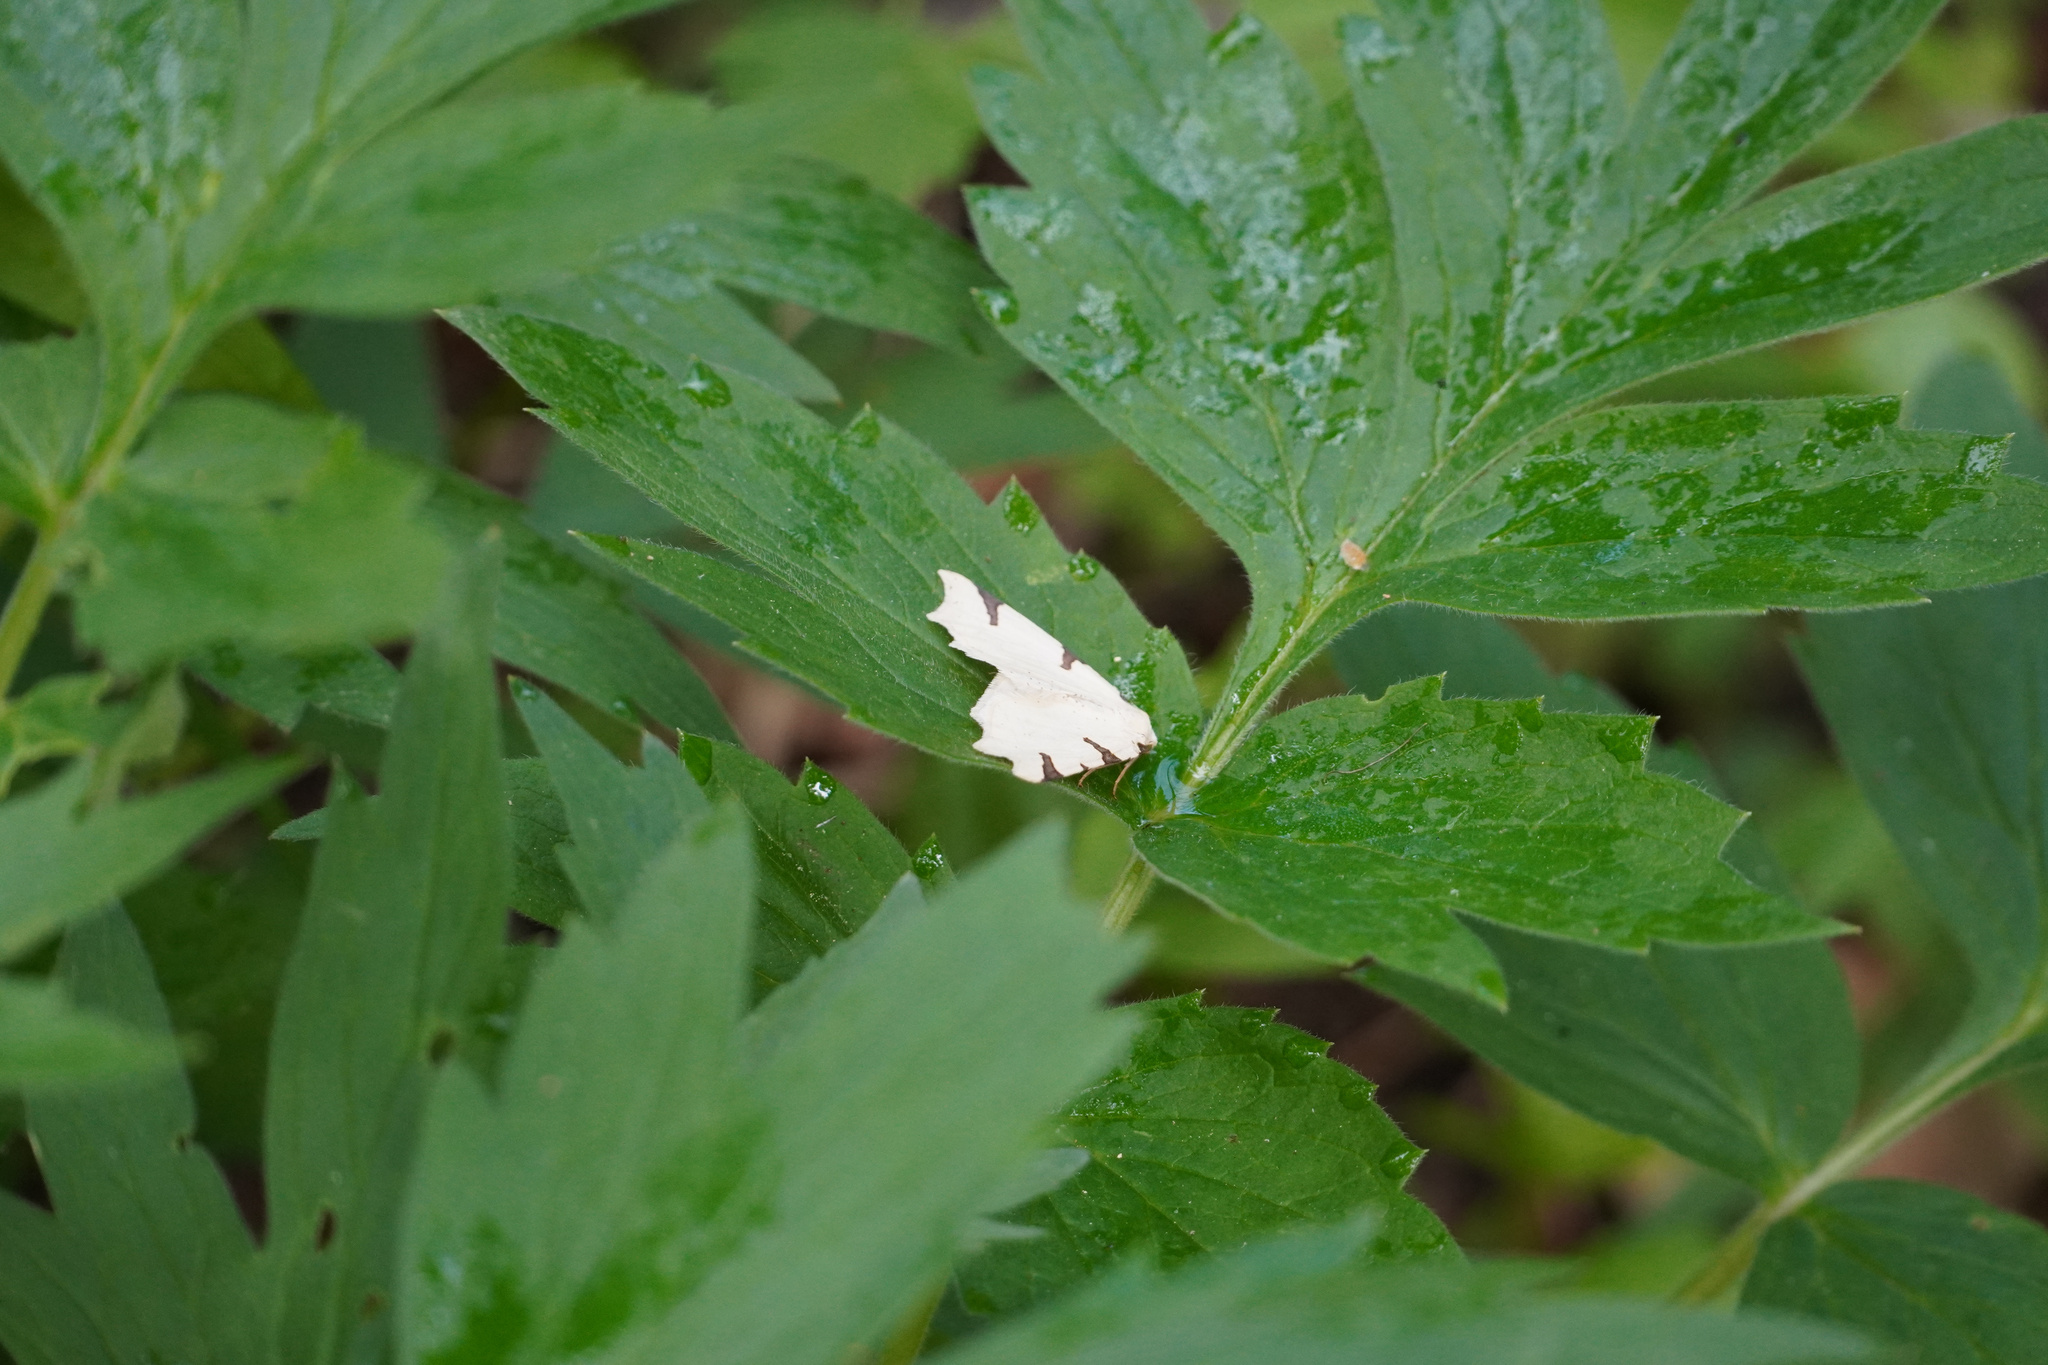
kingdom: Animalia
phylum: Arthropoda
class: Insecta
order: Lepidoptera
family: Geometridae
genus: Neoterpes
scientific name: Neoterpes trianguliferata
